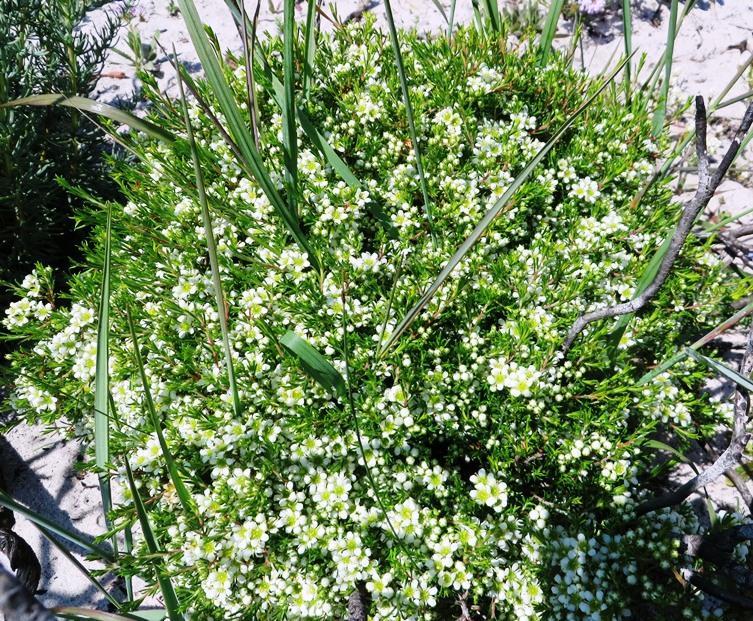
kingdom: Plantae
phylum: Tracheophyta
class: Magnoliopsida
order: Sapindales
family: Rutaceae
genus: Diosma
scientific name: Diosma aspalathoides
